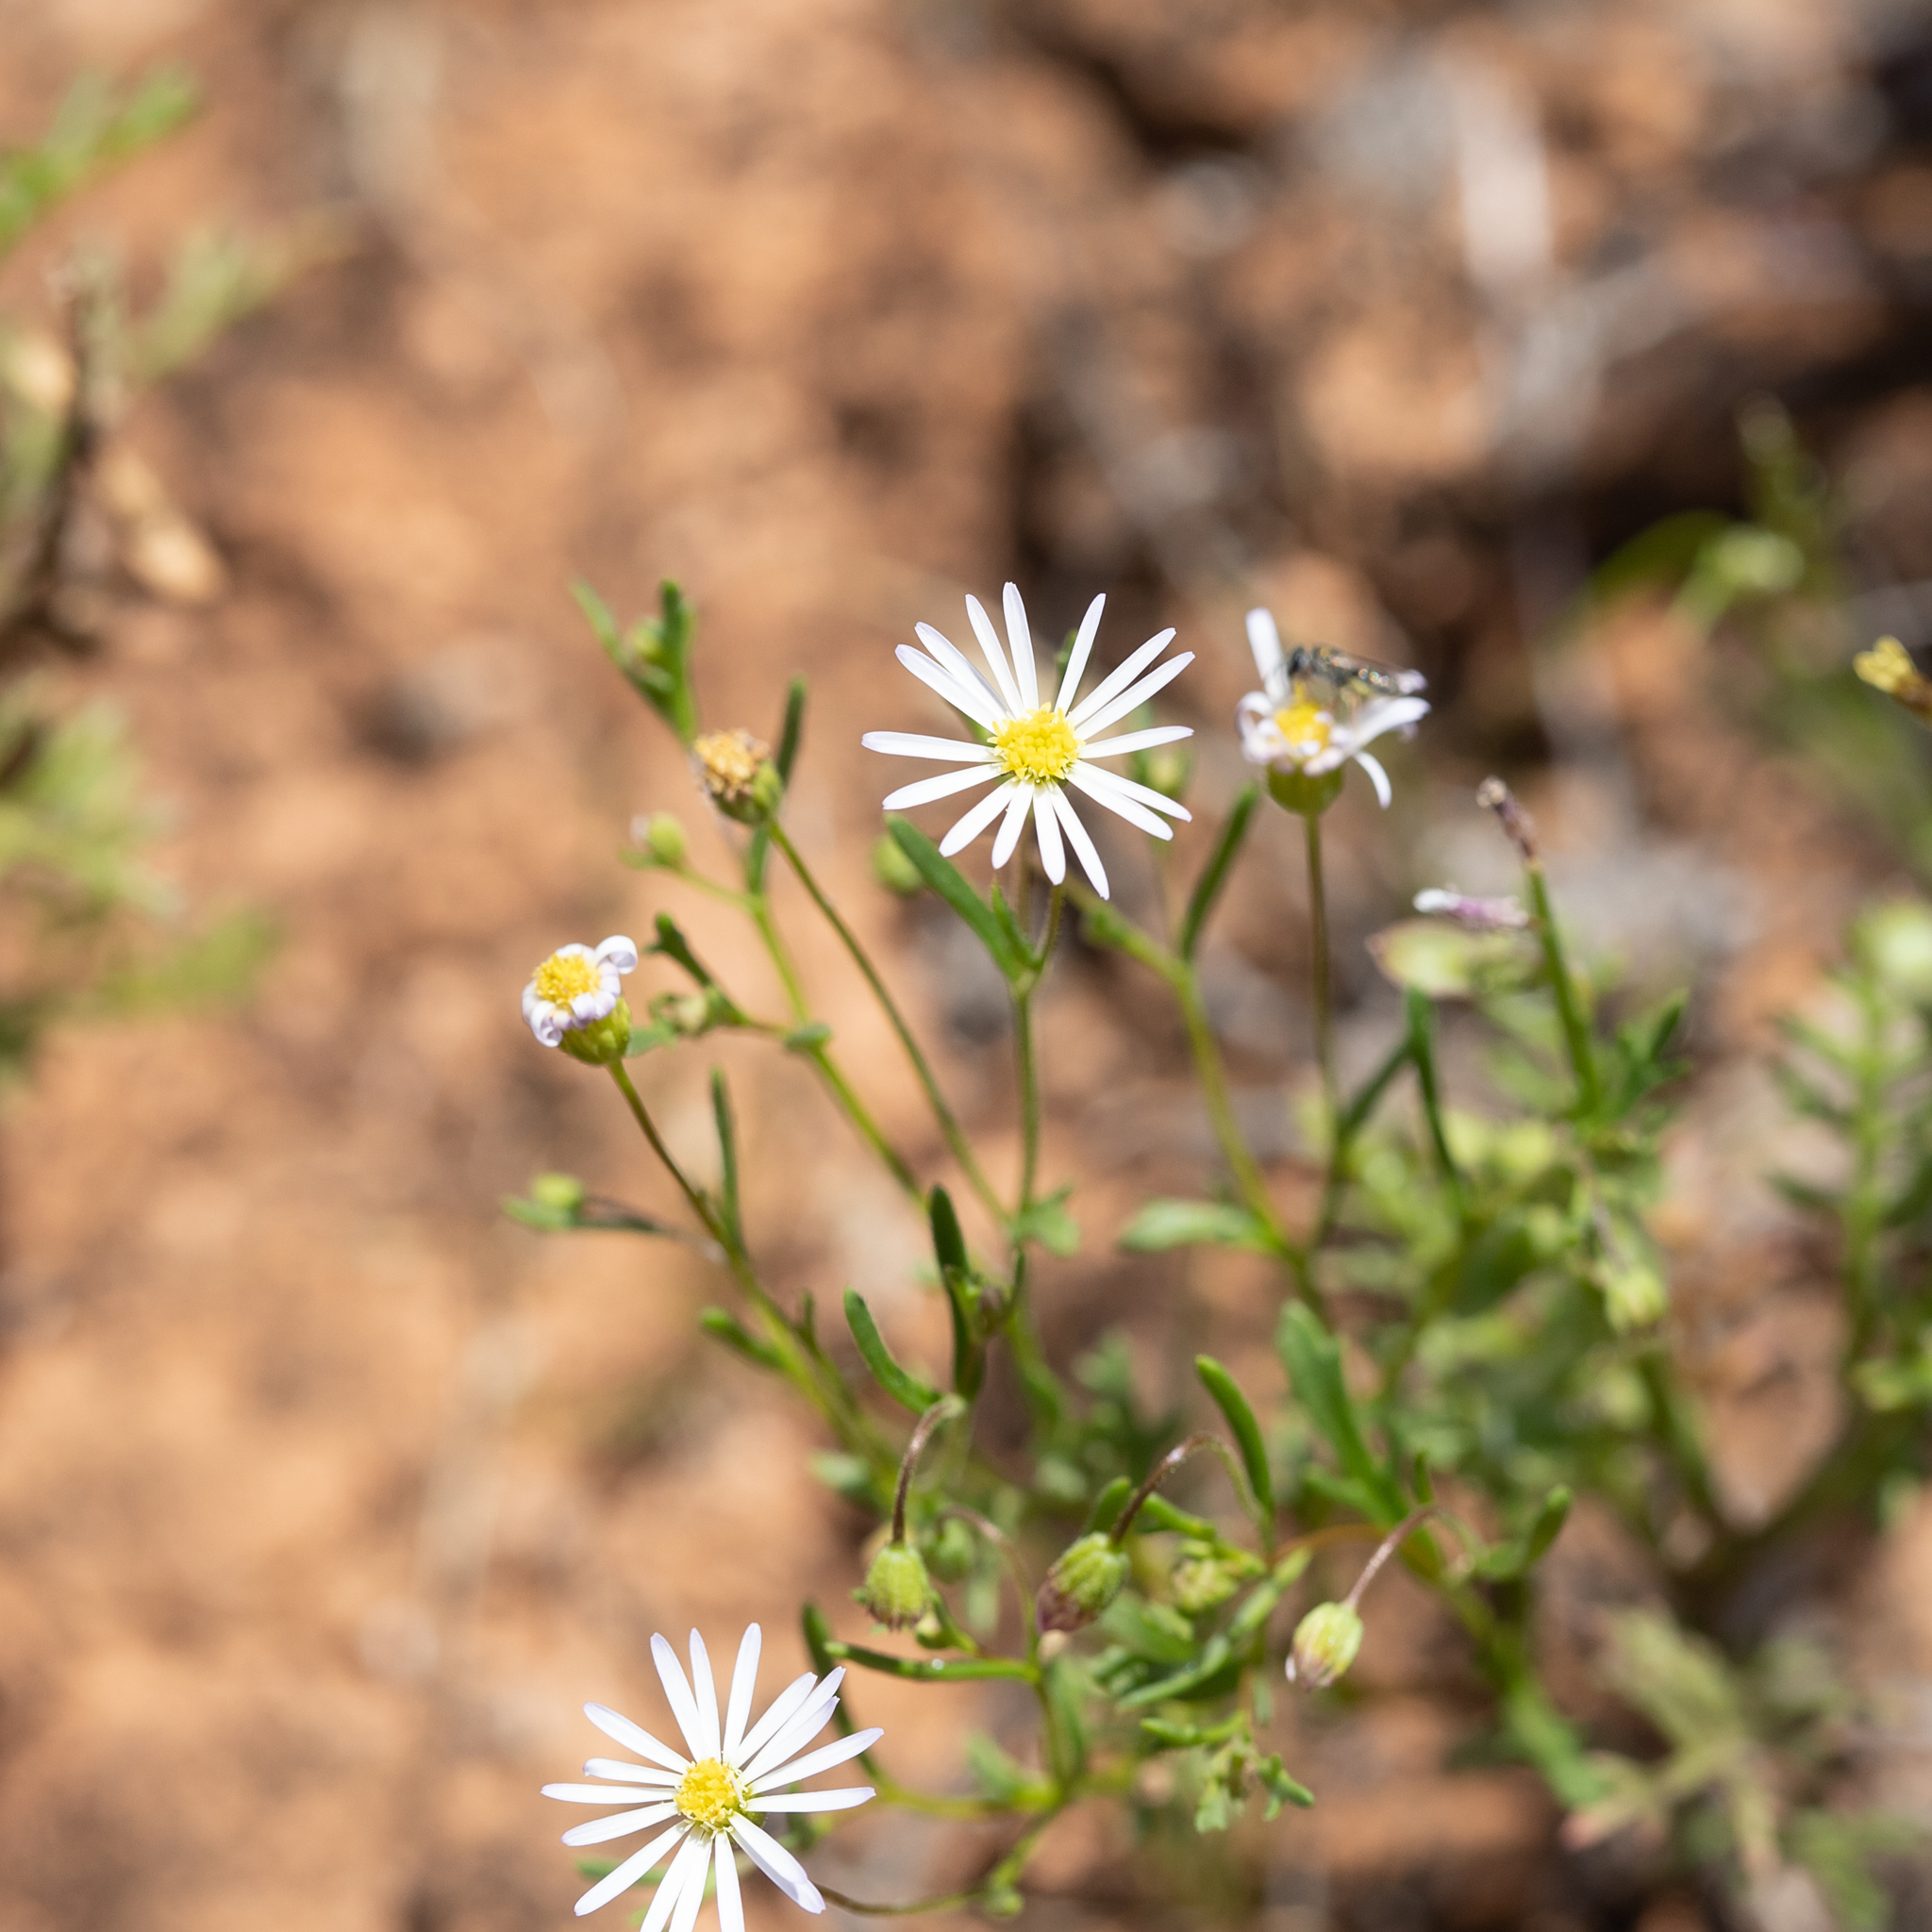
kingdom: Plantae
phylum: Tracheophyta
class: Magnoliopsida
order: Asterales
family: Asteraceae
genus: Brachyscome
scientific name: Brachyscome ciliaris
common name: Variable daisy
